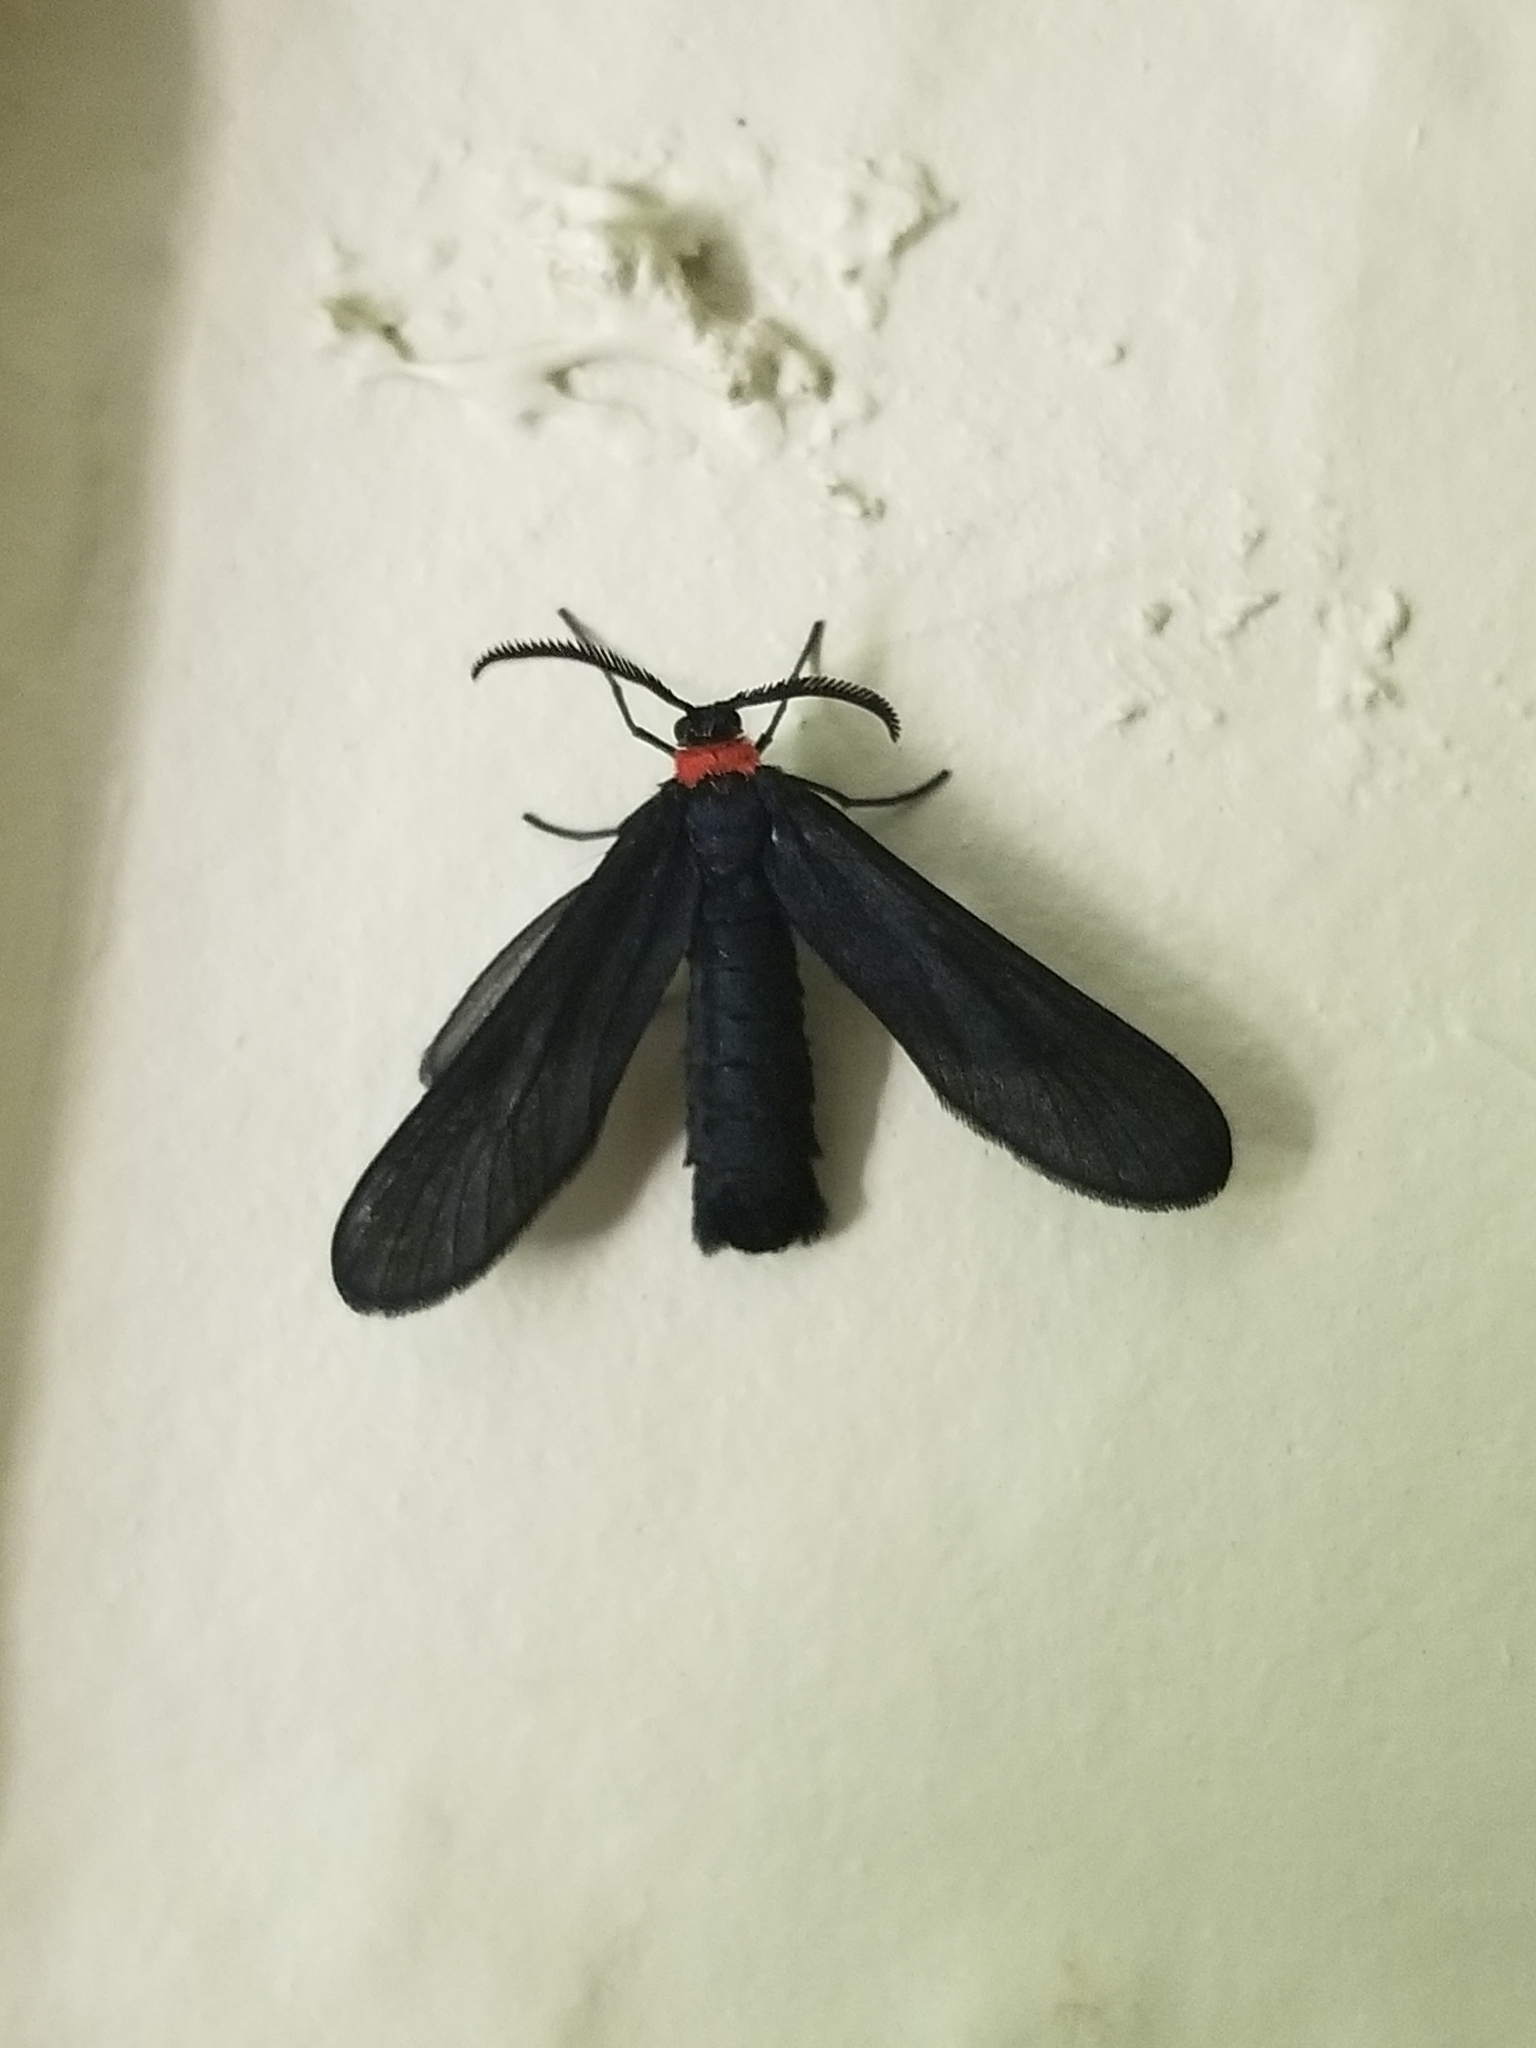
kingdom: Animalia
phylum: Arthropoda
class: Insecta
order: Lepidoptera
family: Zygaenidae
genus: Harrisina
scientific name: Harrisina americana
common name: Grapeleaf skeletonizer moth
